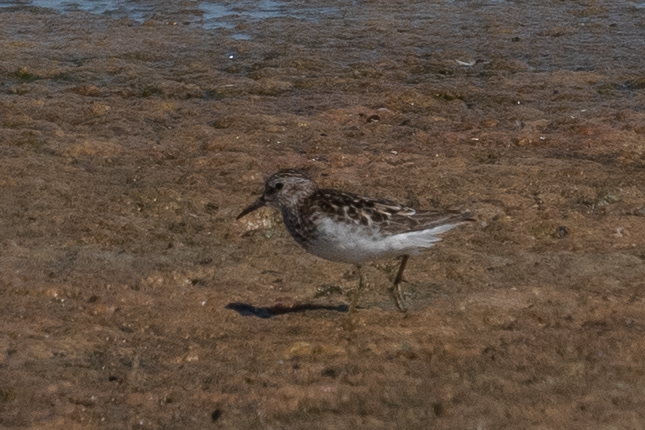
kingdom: Animalia
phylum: Chordata
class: Aves
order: Charadriiformes
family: Scolopacidae
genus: Calidris
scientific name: Calidris minutilla
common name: Least sandpiper
